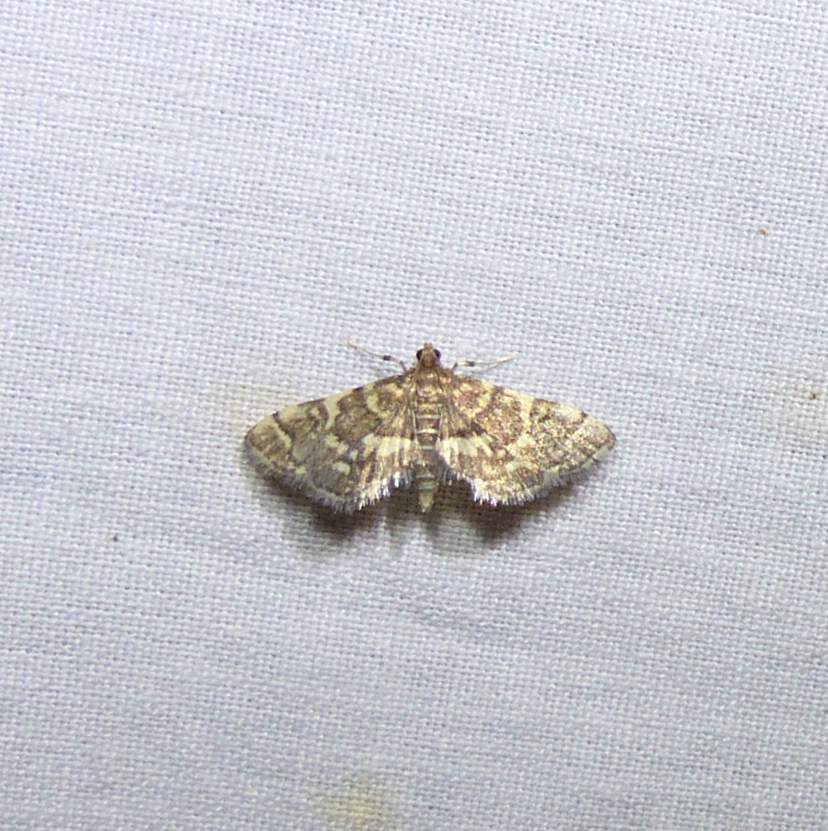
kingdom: Animalia
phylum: Arthropoda
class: Insecta
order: Lepidoptera
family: Crambidae
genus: Anageshna
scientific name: Anageshna primordialis
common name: Yellow-spotted webworm moth
